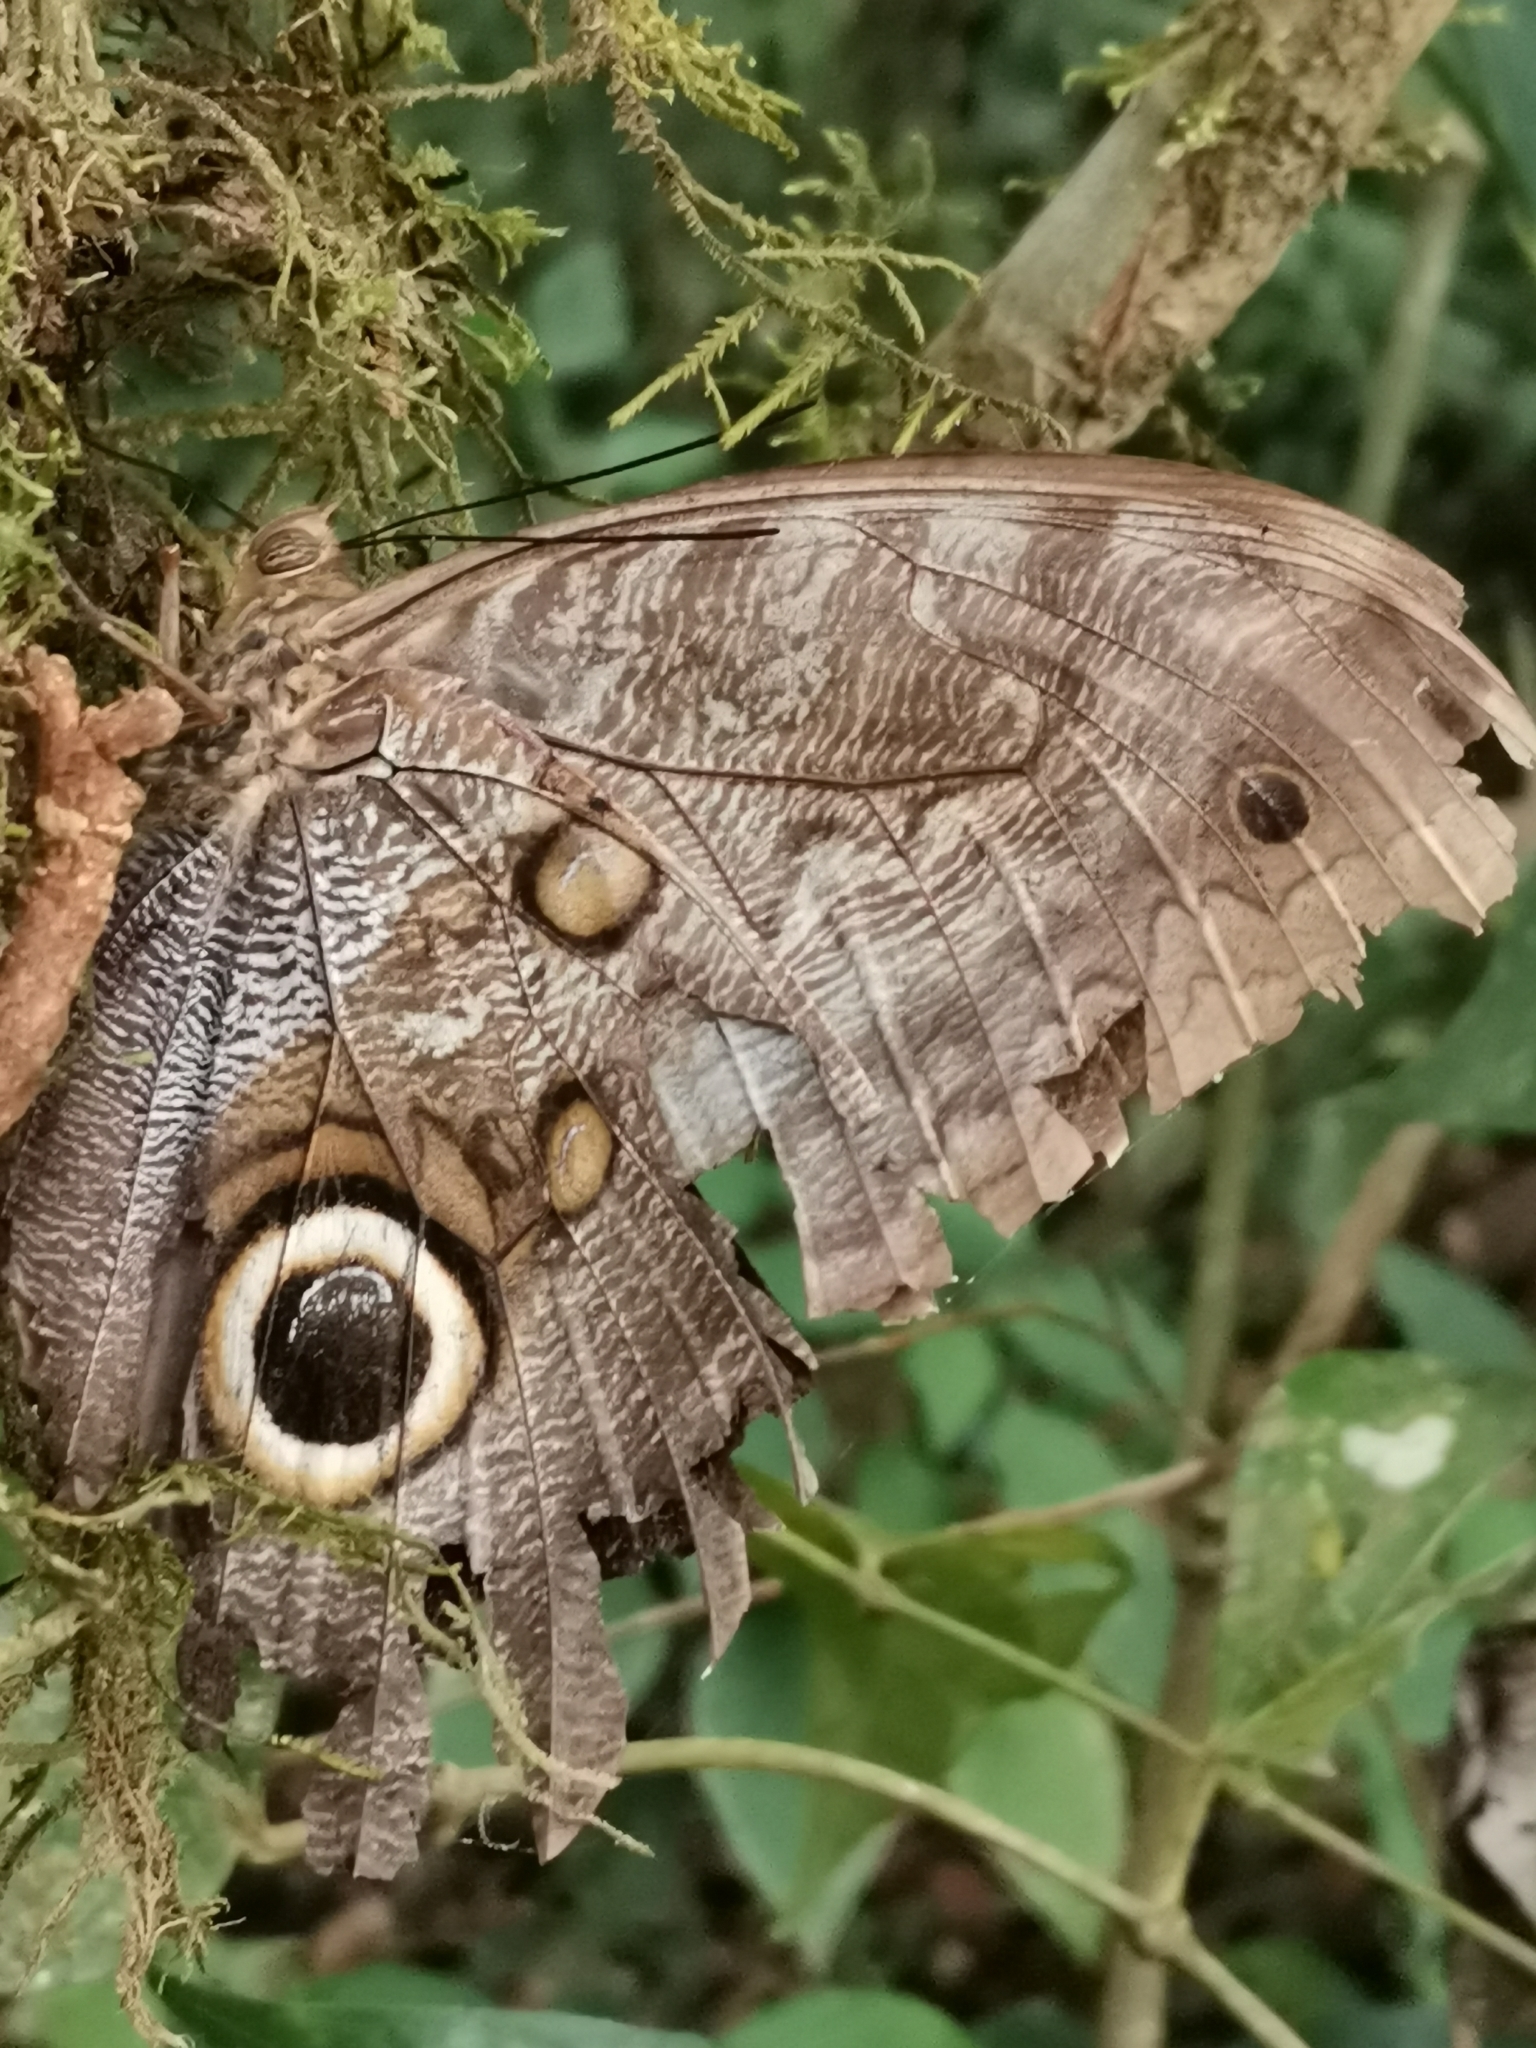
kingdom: Animalia
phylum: Arthropoda
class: Insecta
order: Lepidoptera
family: Nymphalidae
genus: Caligo
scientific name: Caligo eurilochus
